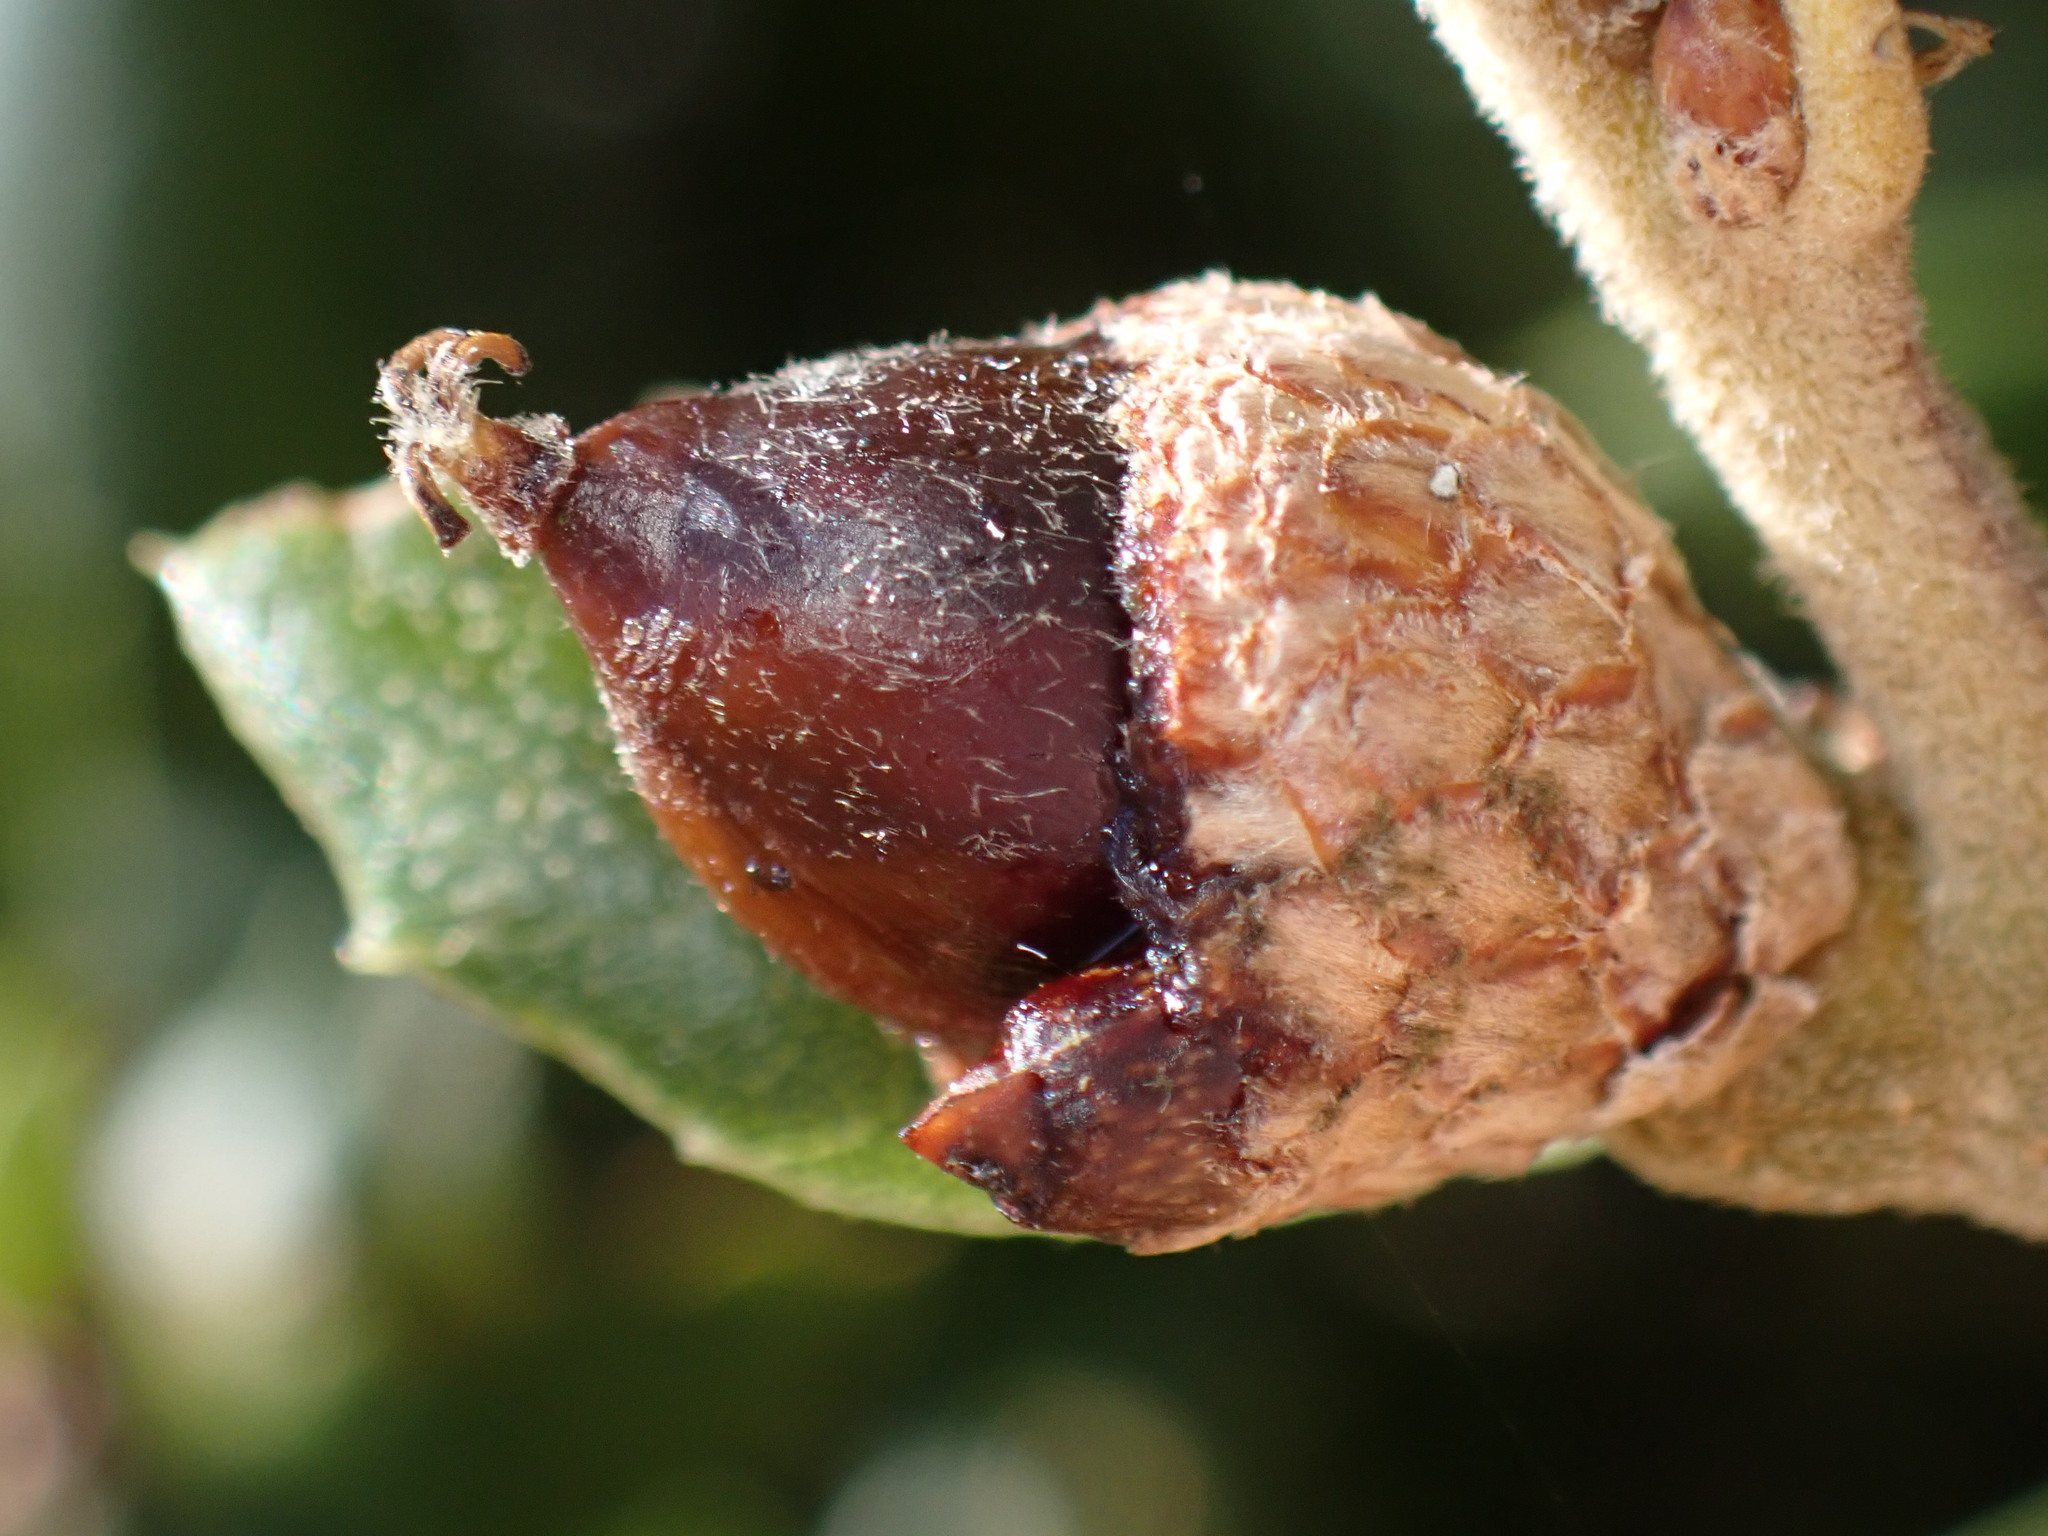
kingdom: Animalia
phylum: Arthropoda
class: Insecta
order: Hymenoptera
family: Cynipidae
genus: Callirhytis
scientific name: Callirhytis
